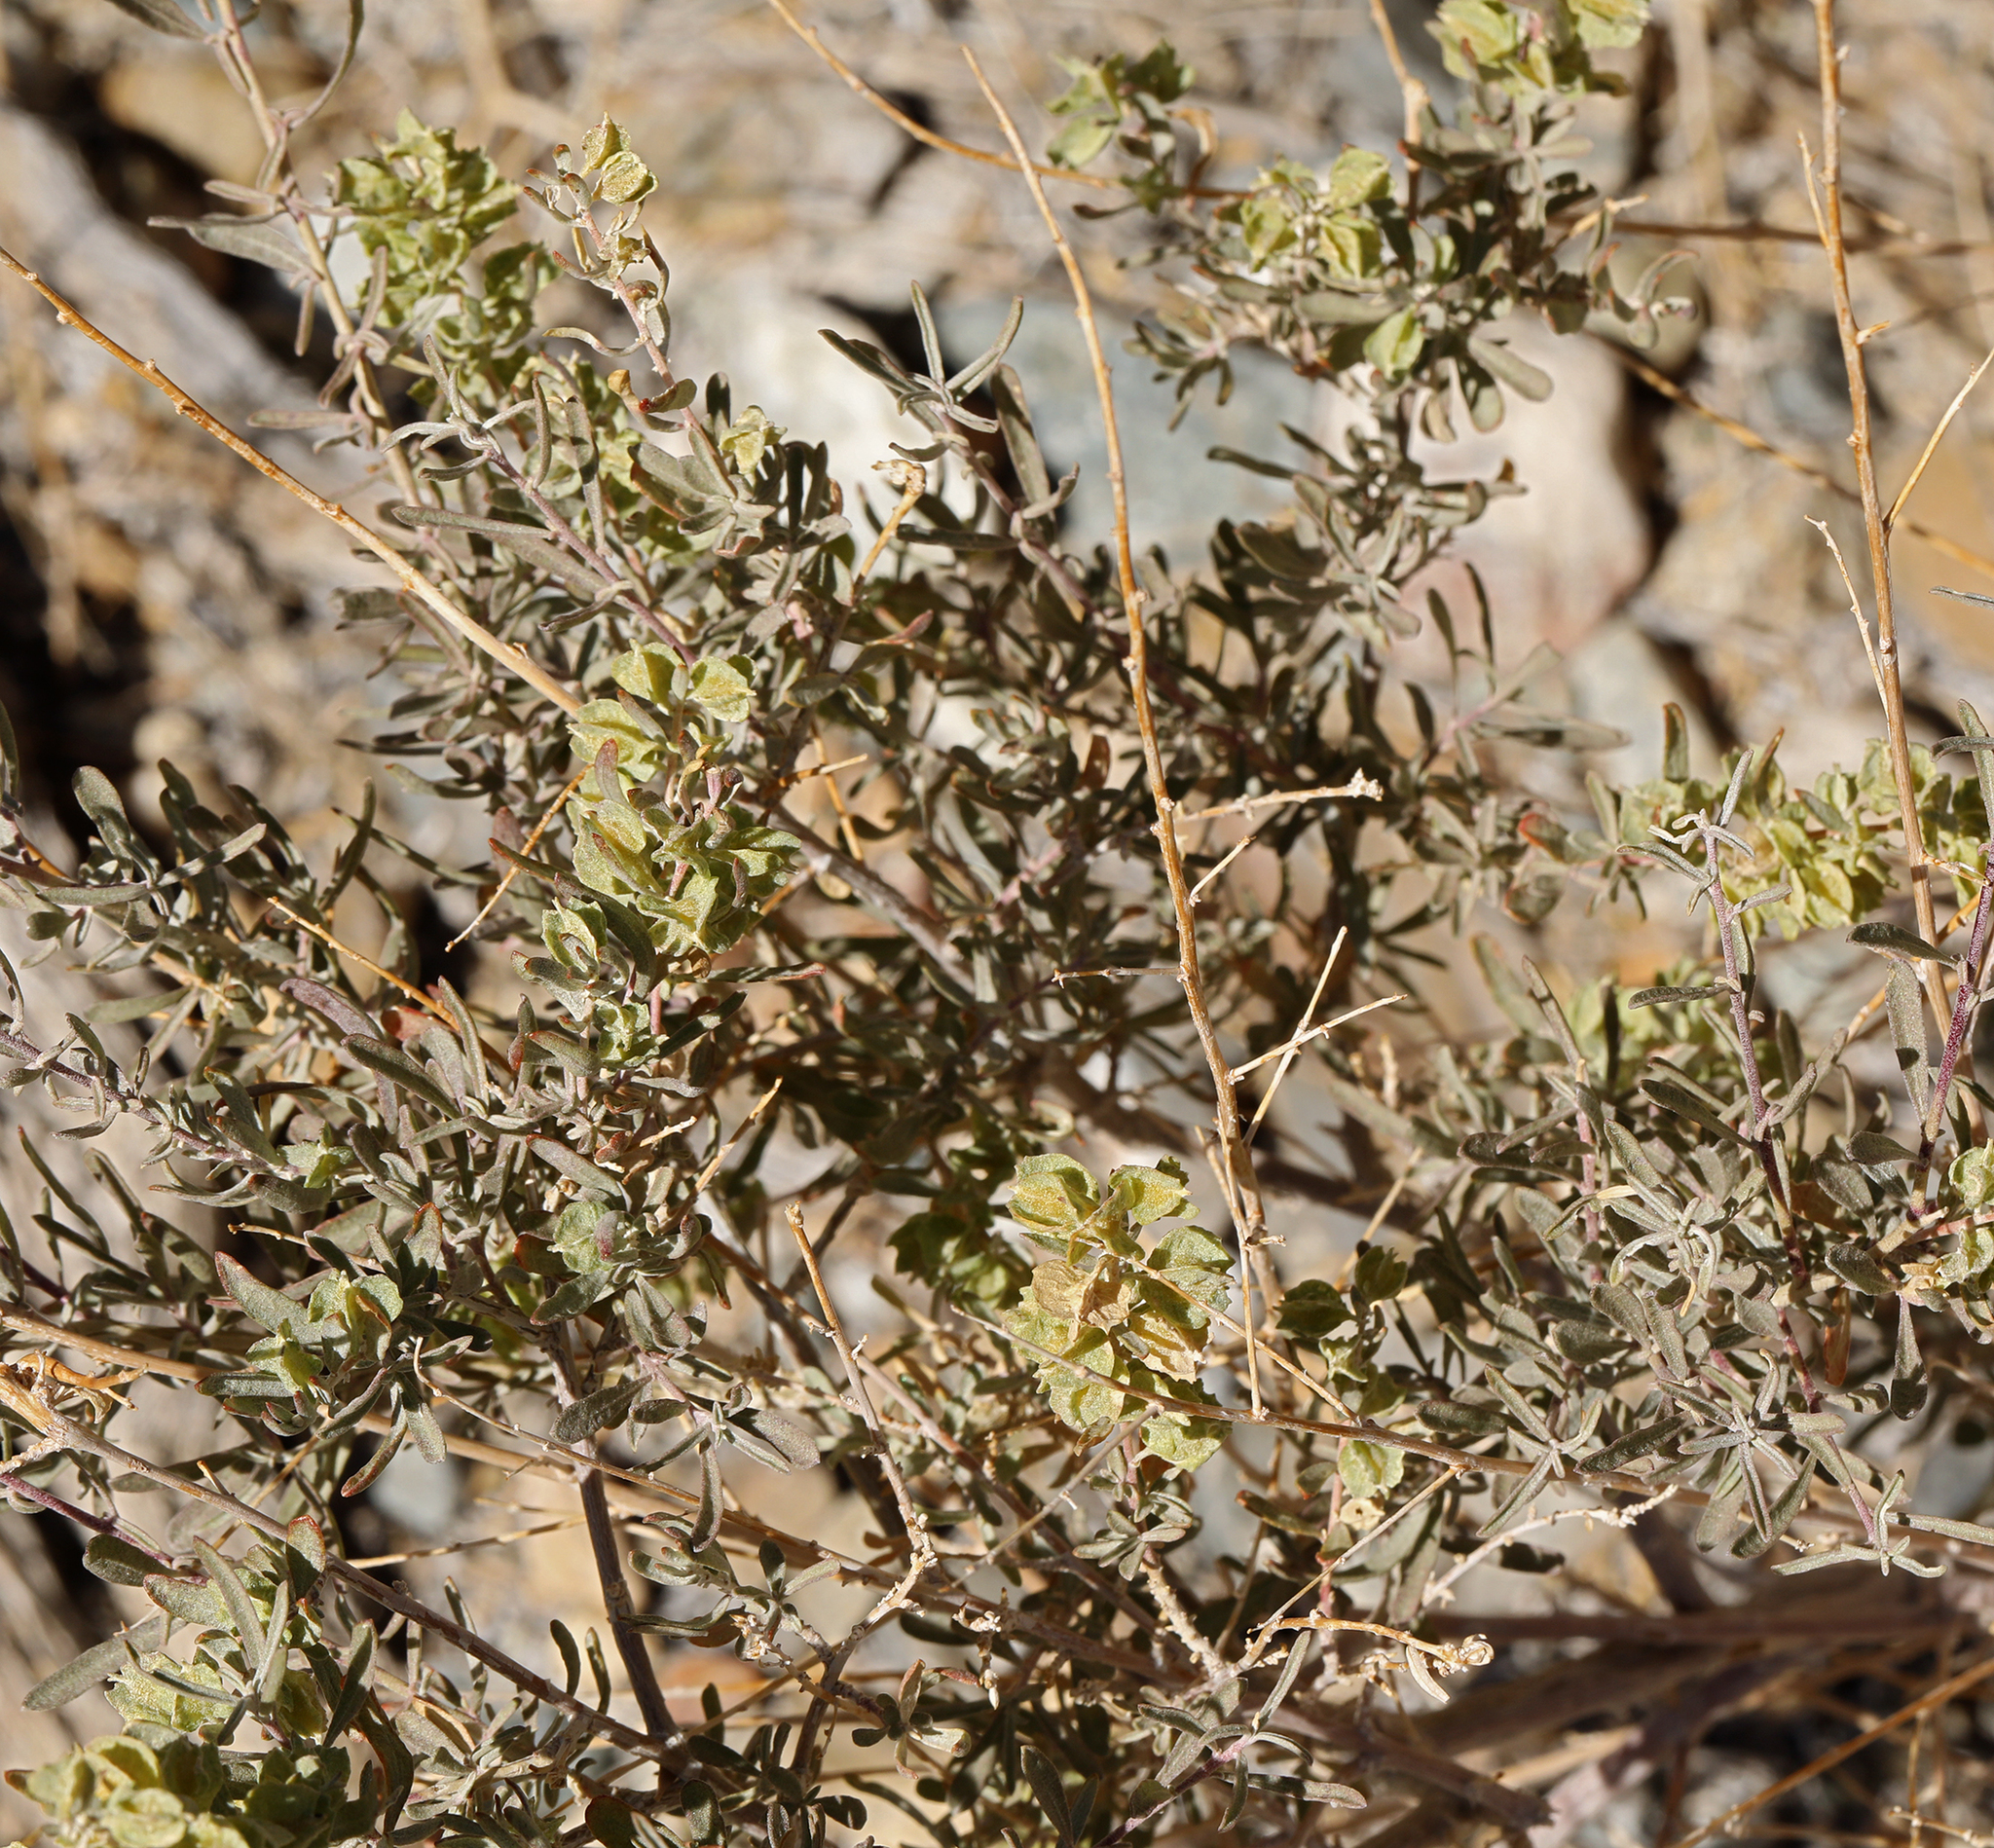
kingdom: Plantae
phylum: Tracheophyta
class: Magnoliopsida
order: Caryophyllales
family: Amaranthaceae
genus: Atriplex
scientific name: Atriplex canescens
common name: Four-wing saltbush
